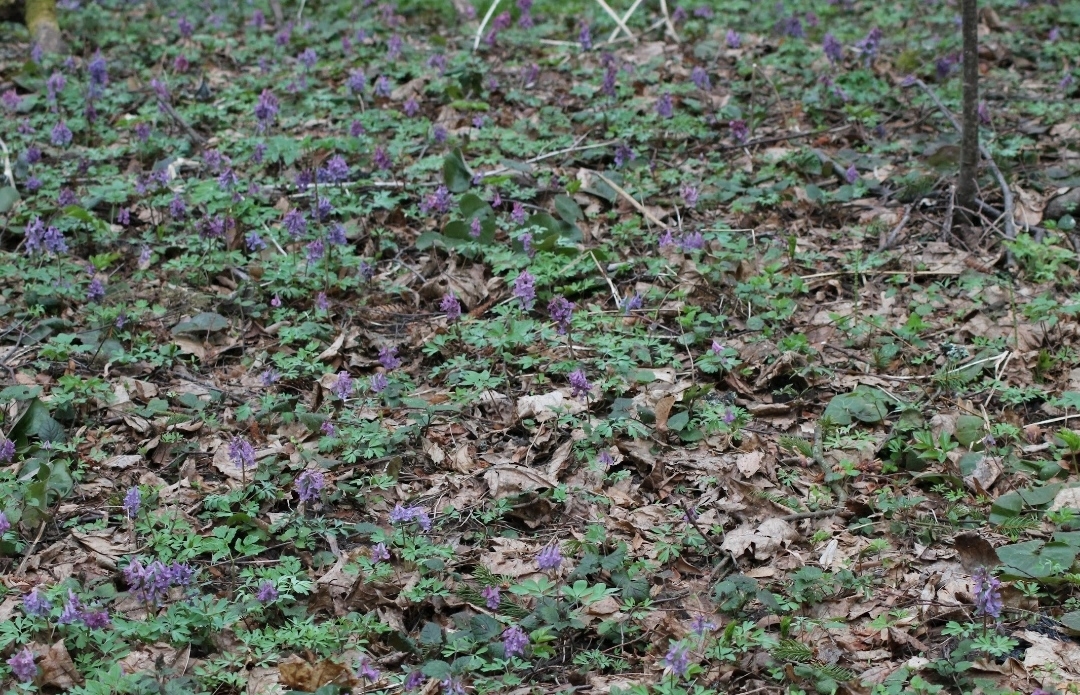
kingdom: Plantae
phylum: Tracheophyta
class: Magnoliopsida
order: Ranunculales
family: Papaveraceae
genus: Corydalis
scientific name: Corydalis solida
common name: Bird-in-a-bush
